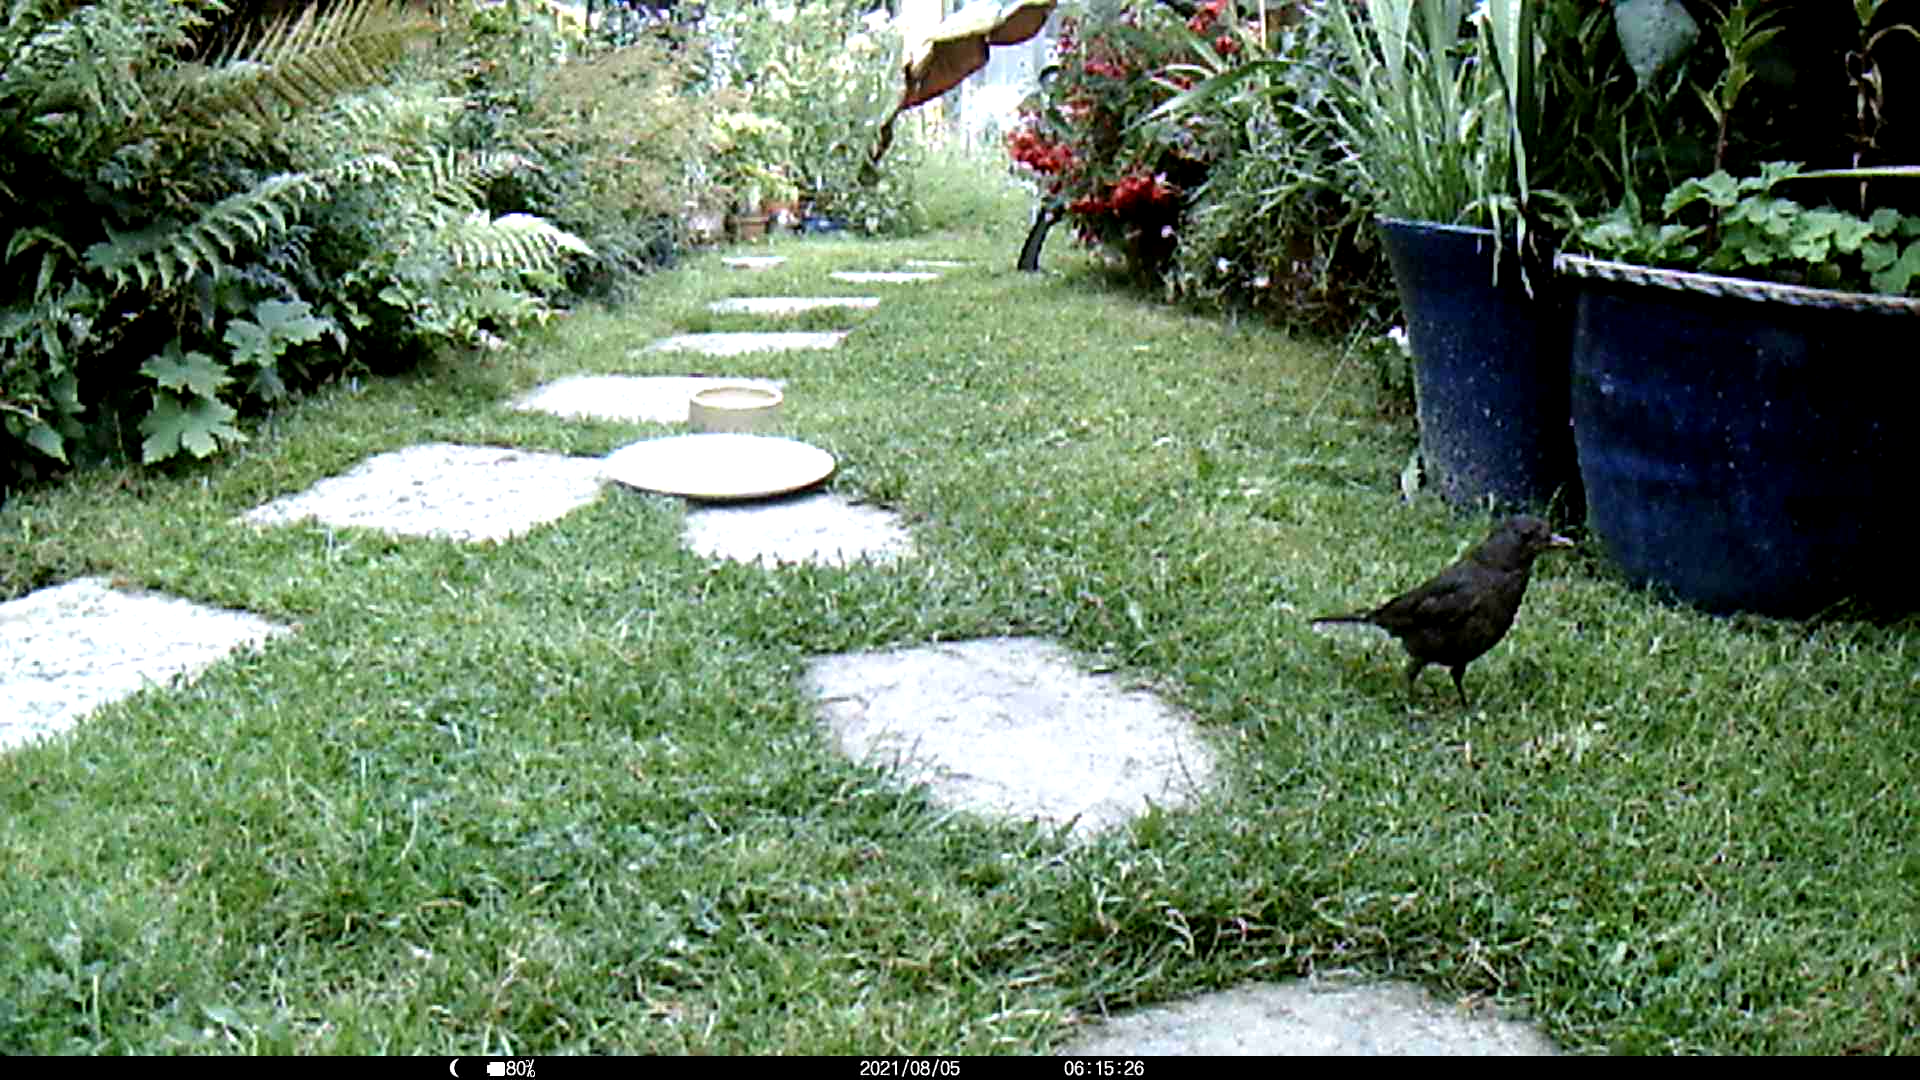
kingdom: Animalia
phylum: Chordata
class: Aves
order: Passeriformes
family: Turdidae
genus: Turdus
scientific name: Turdus merula
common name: Common blackbird
